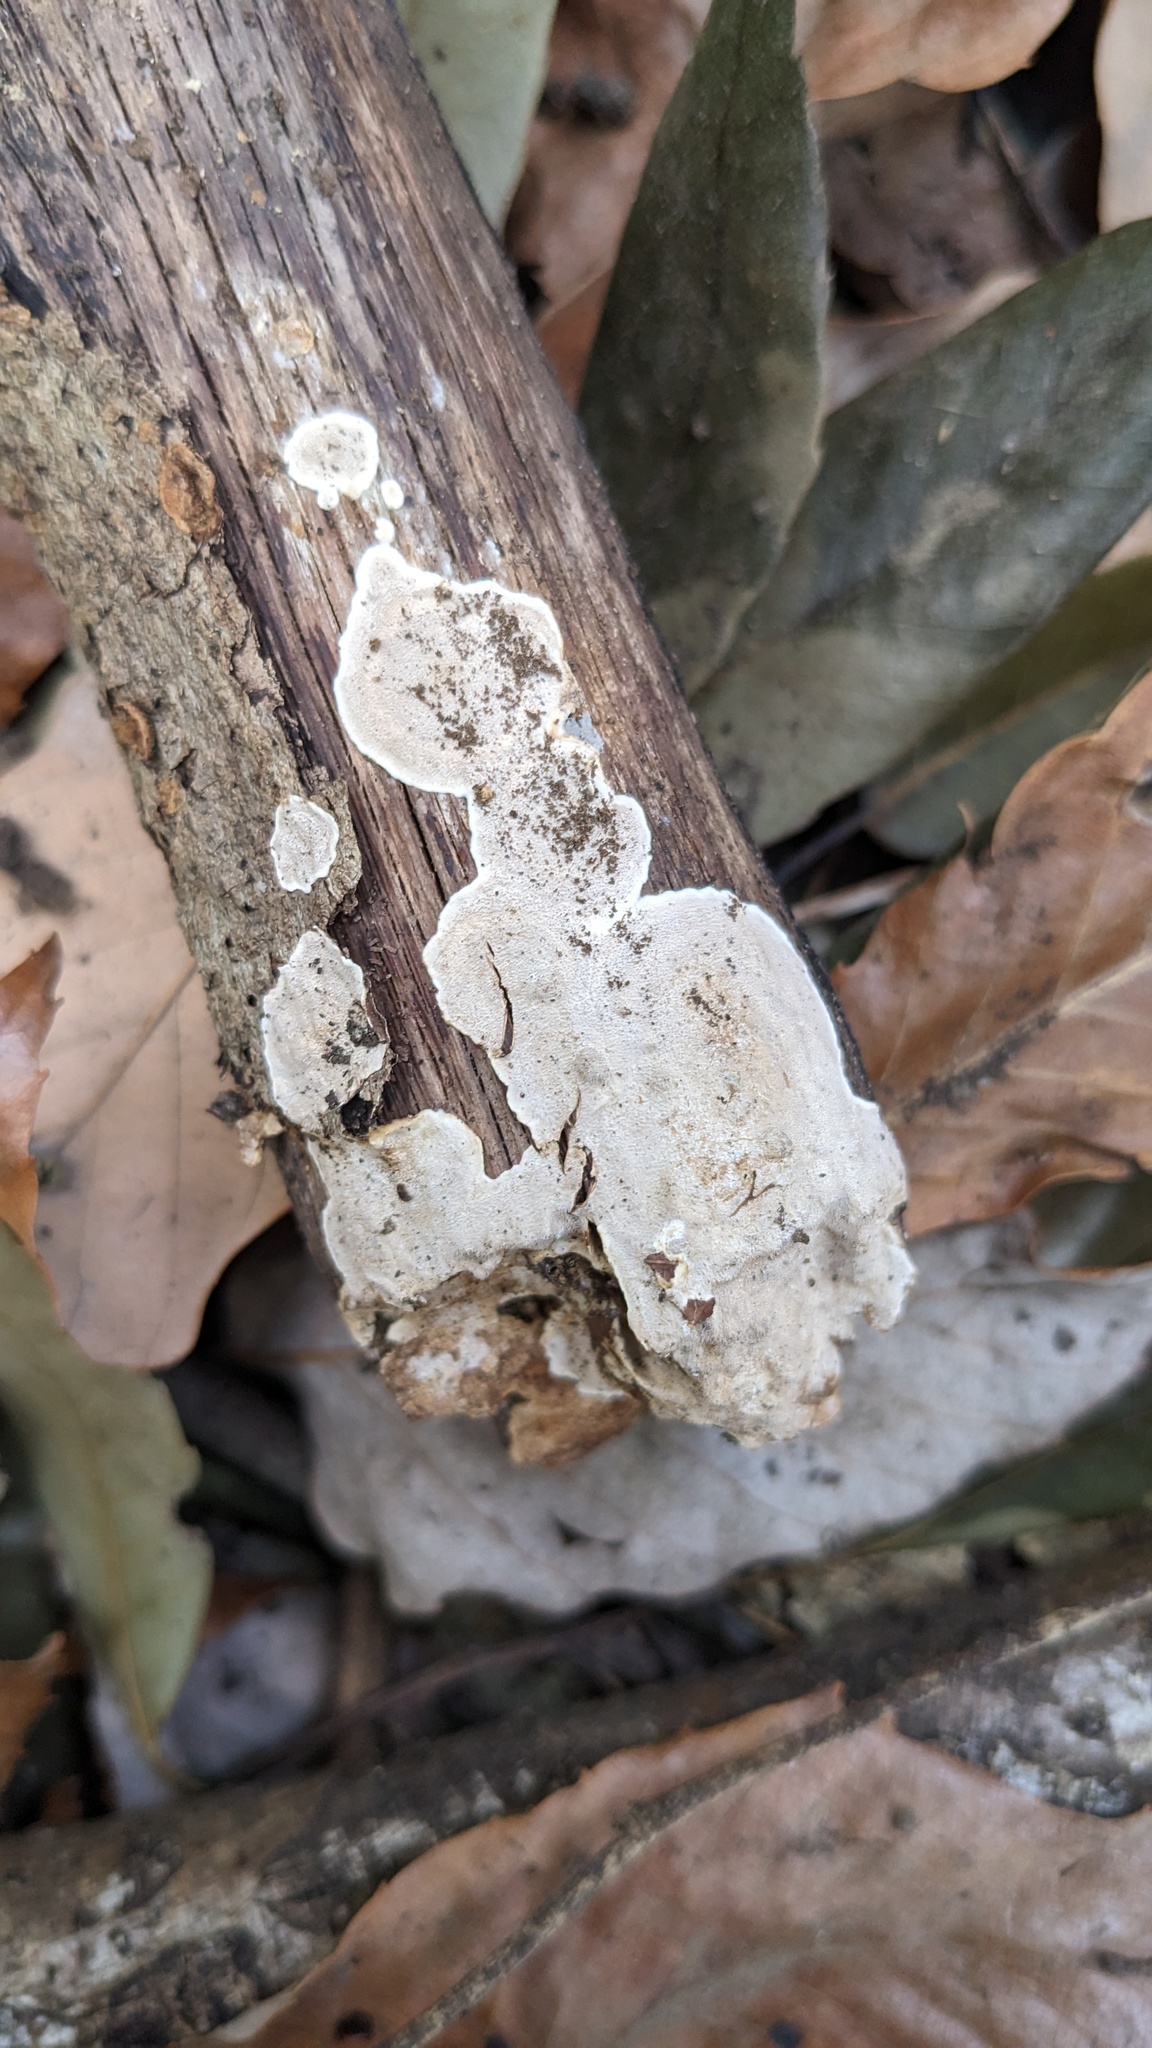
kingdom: Fungi
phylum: Basidiomycota
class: Agaricomycetes
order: Auriculariales
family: Auriculariaceae
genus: Heterochaete
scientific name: Heterochaete delicata
